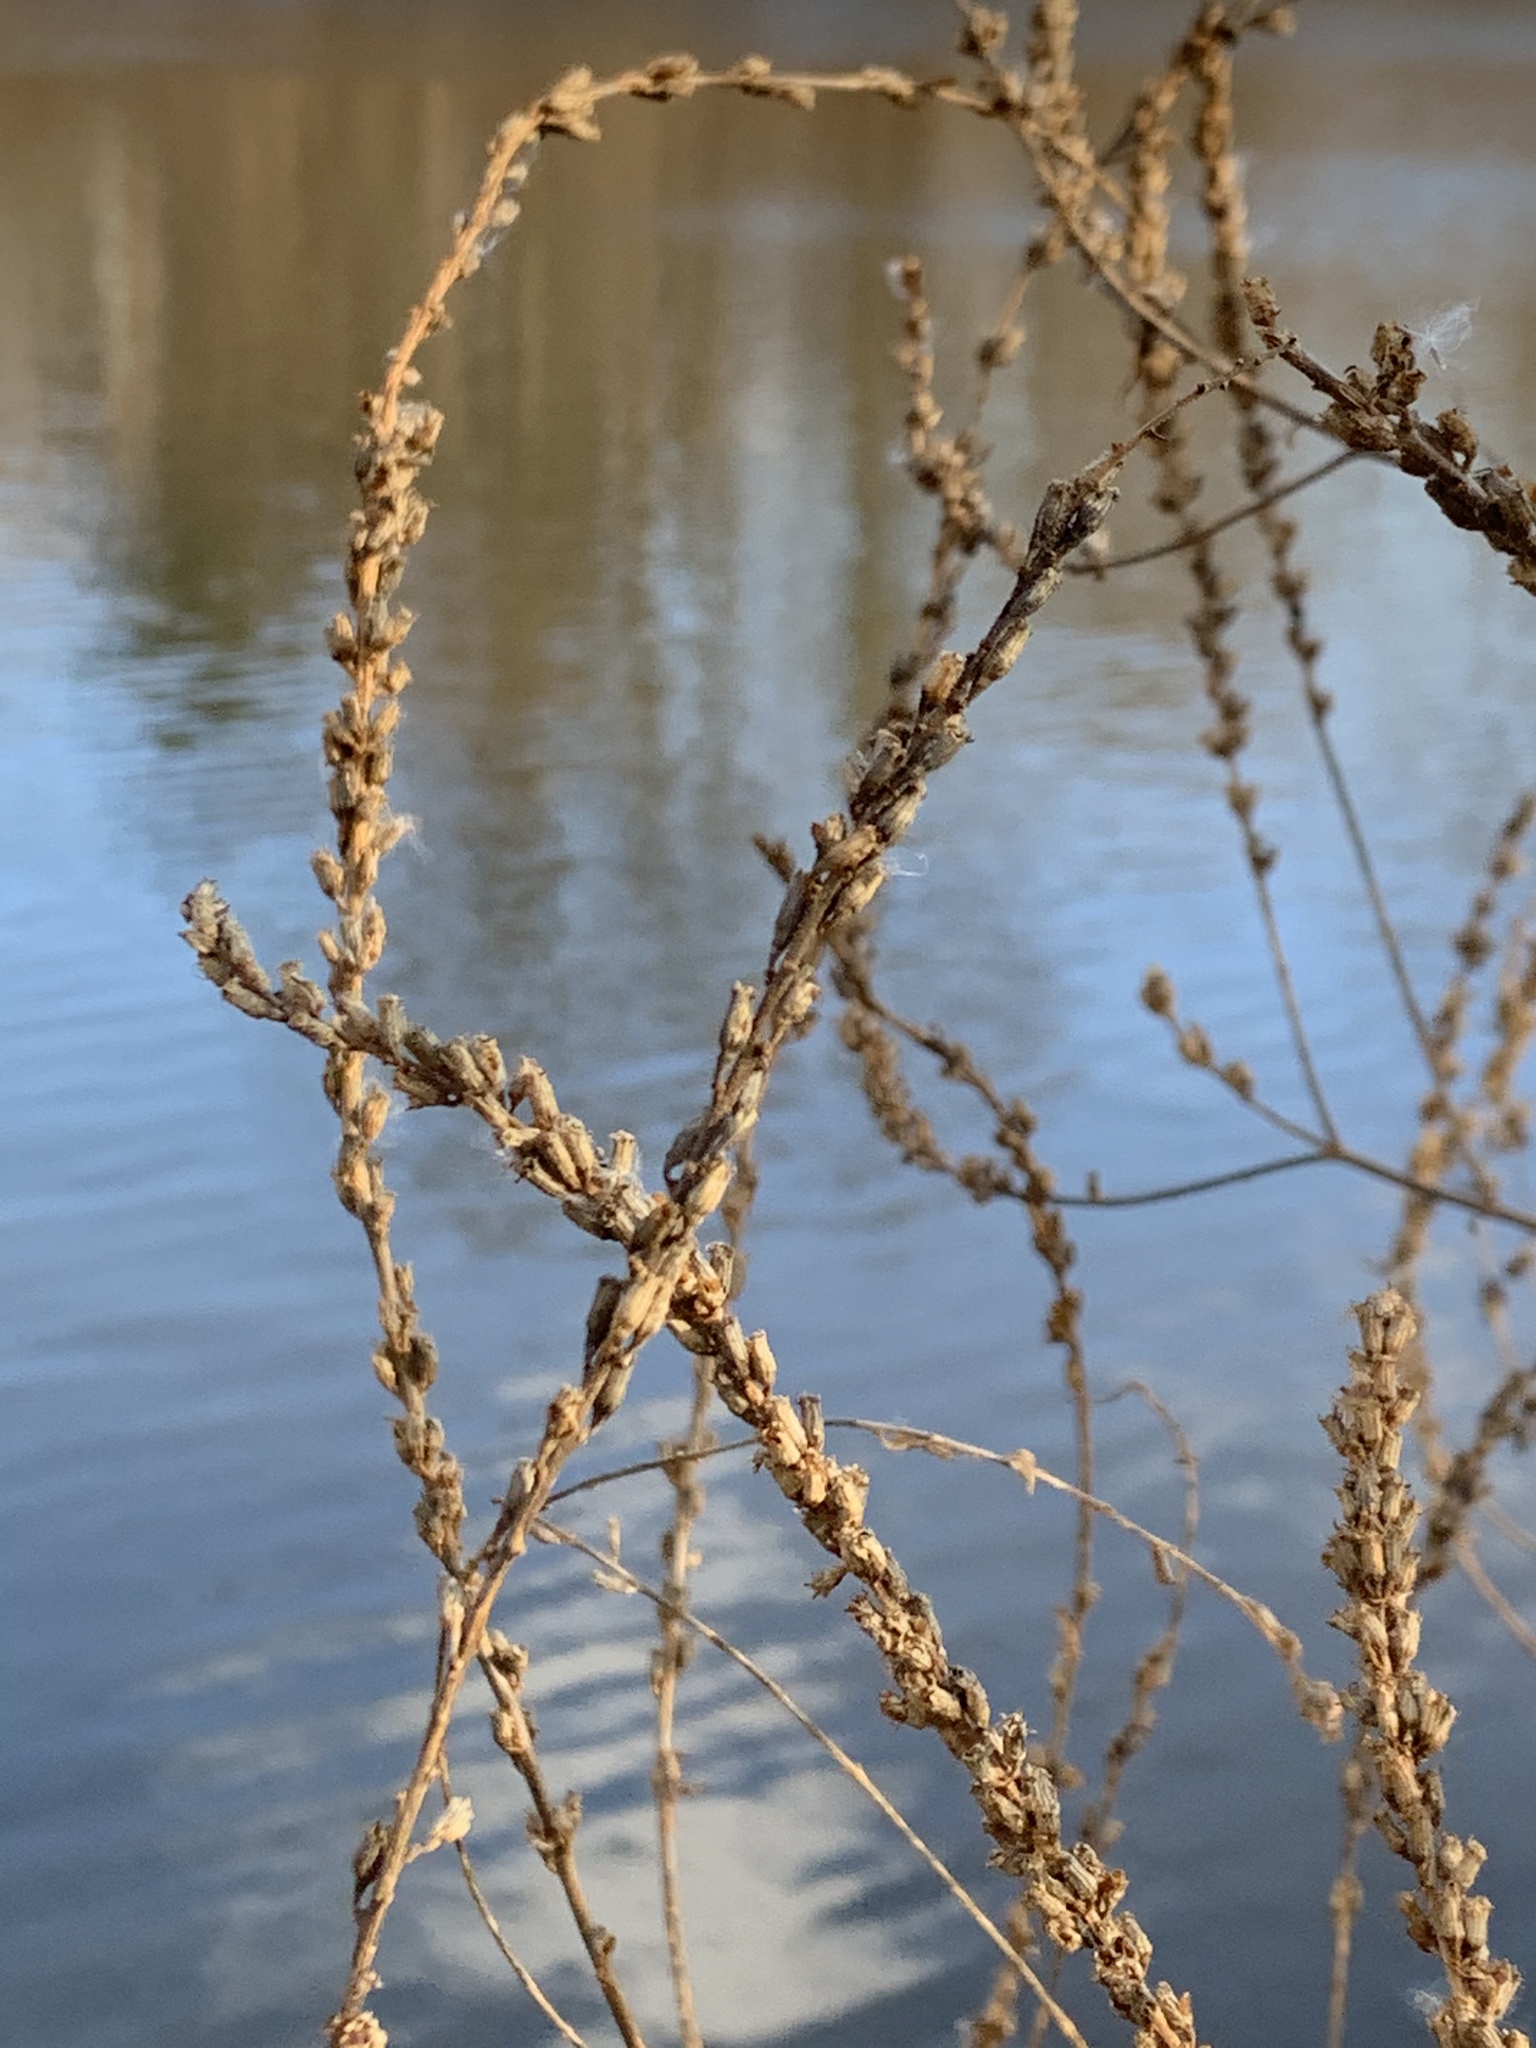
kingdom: Plantae
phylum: Tracheophyta
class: Magnoliopsida
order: Myrtales
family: Lythraceae
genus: Lythrum
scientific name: Lythrum salicaria
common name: Purple loosestrife
